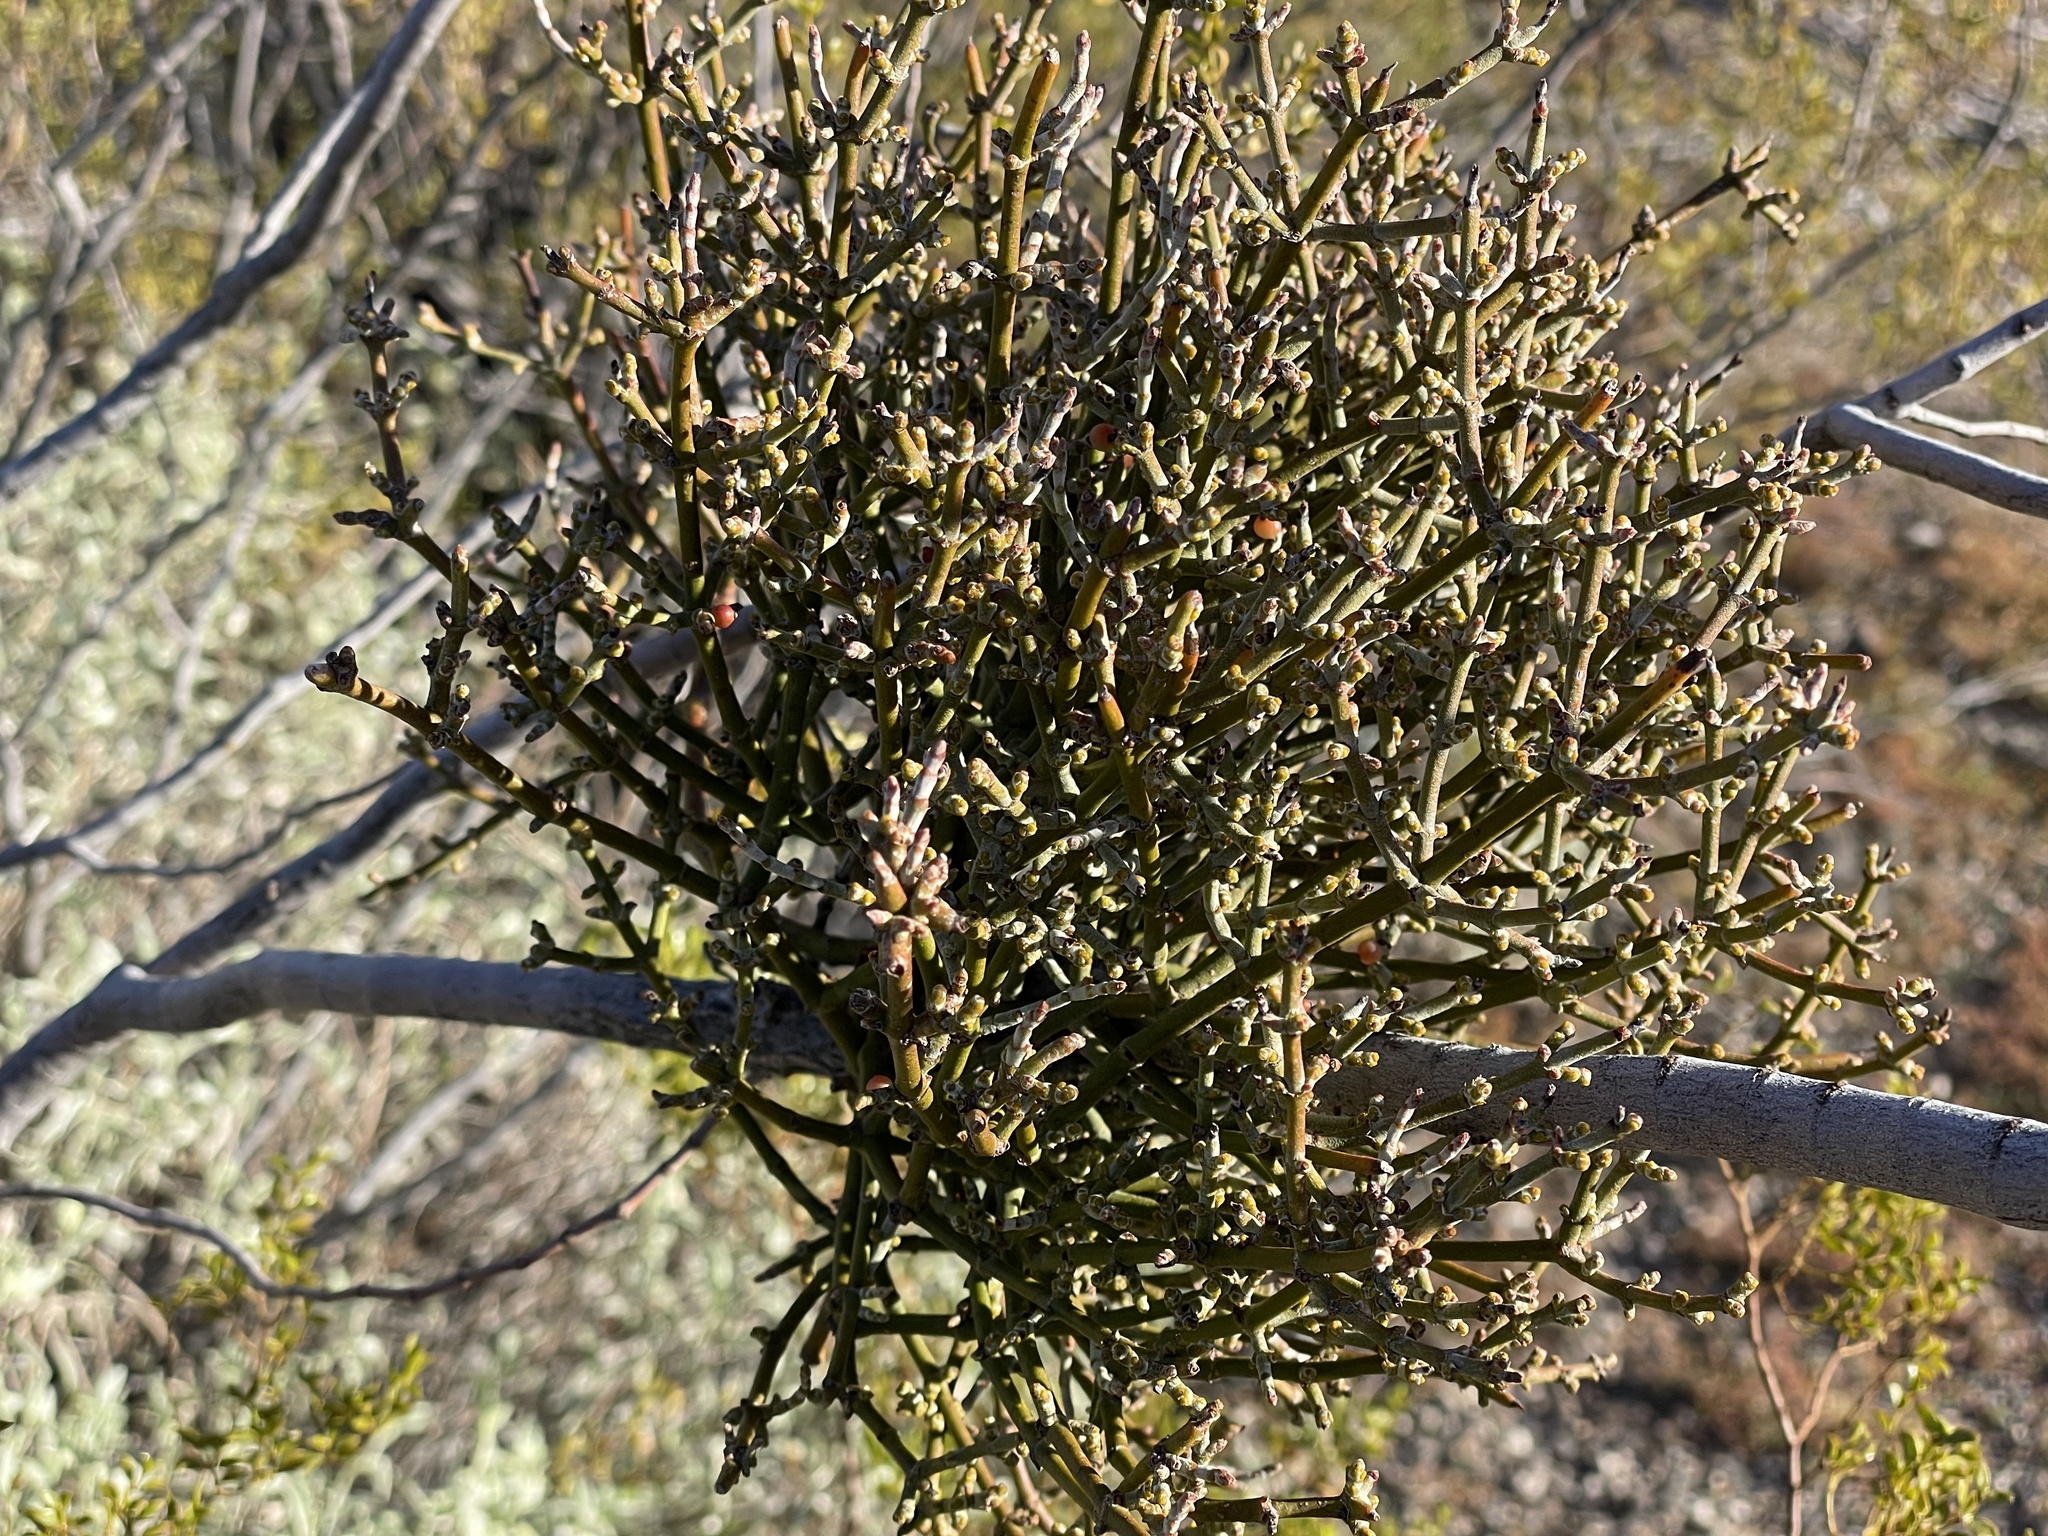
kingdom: Plantae
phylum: Tracheophyta
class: Magnoliopsida
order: Santalales
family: Viscaceae
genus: Phoradendron
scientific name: Phoradendron californicum
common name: Acacia mistletoe
